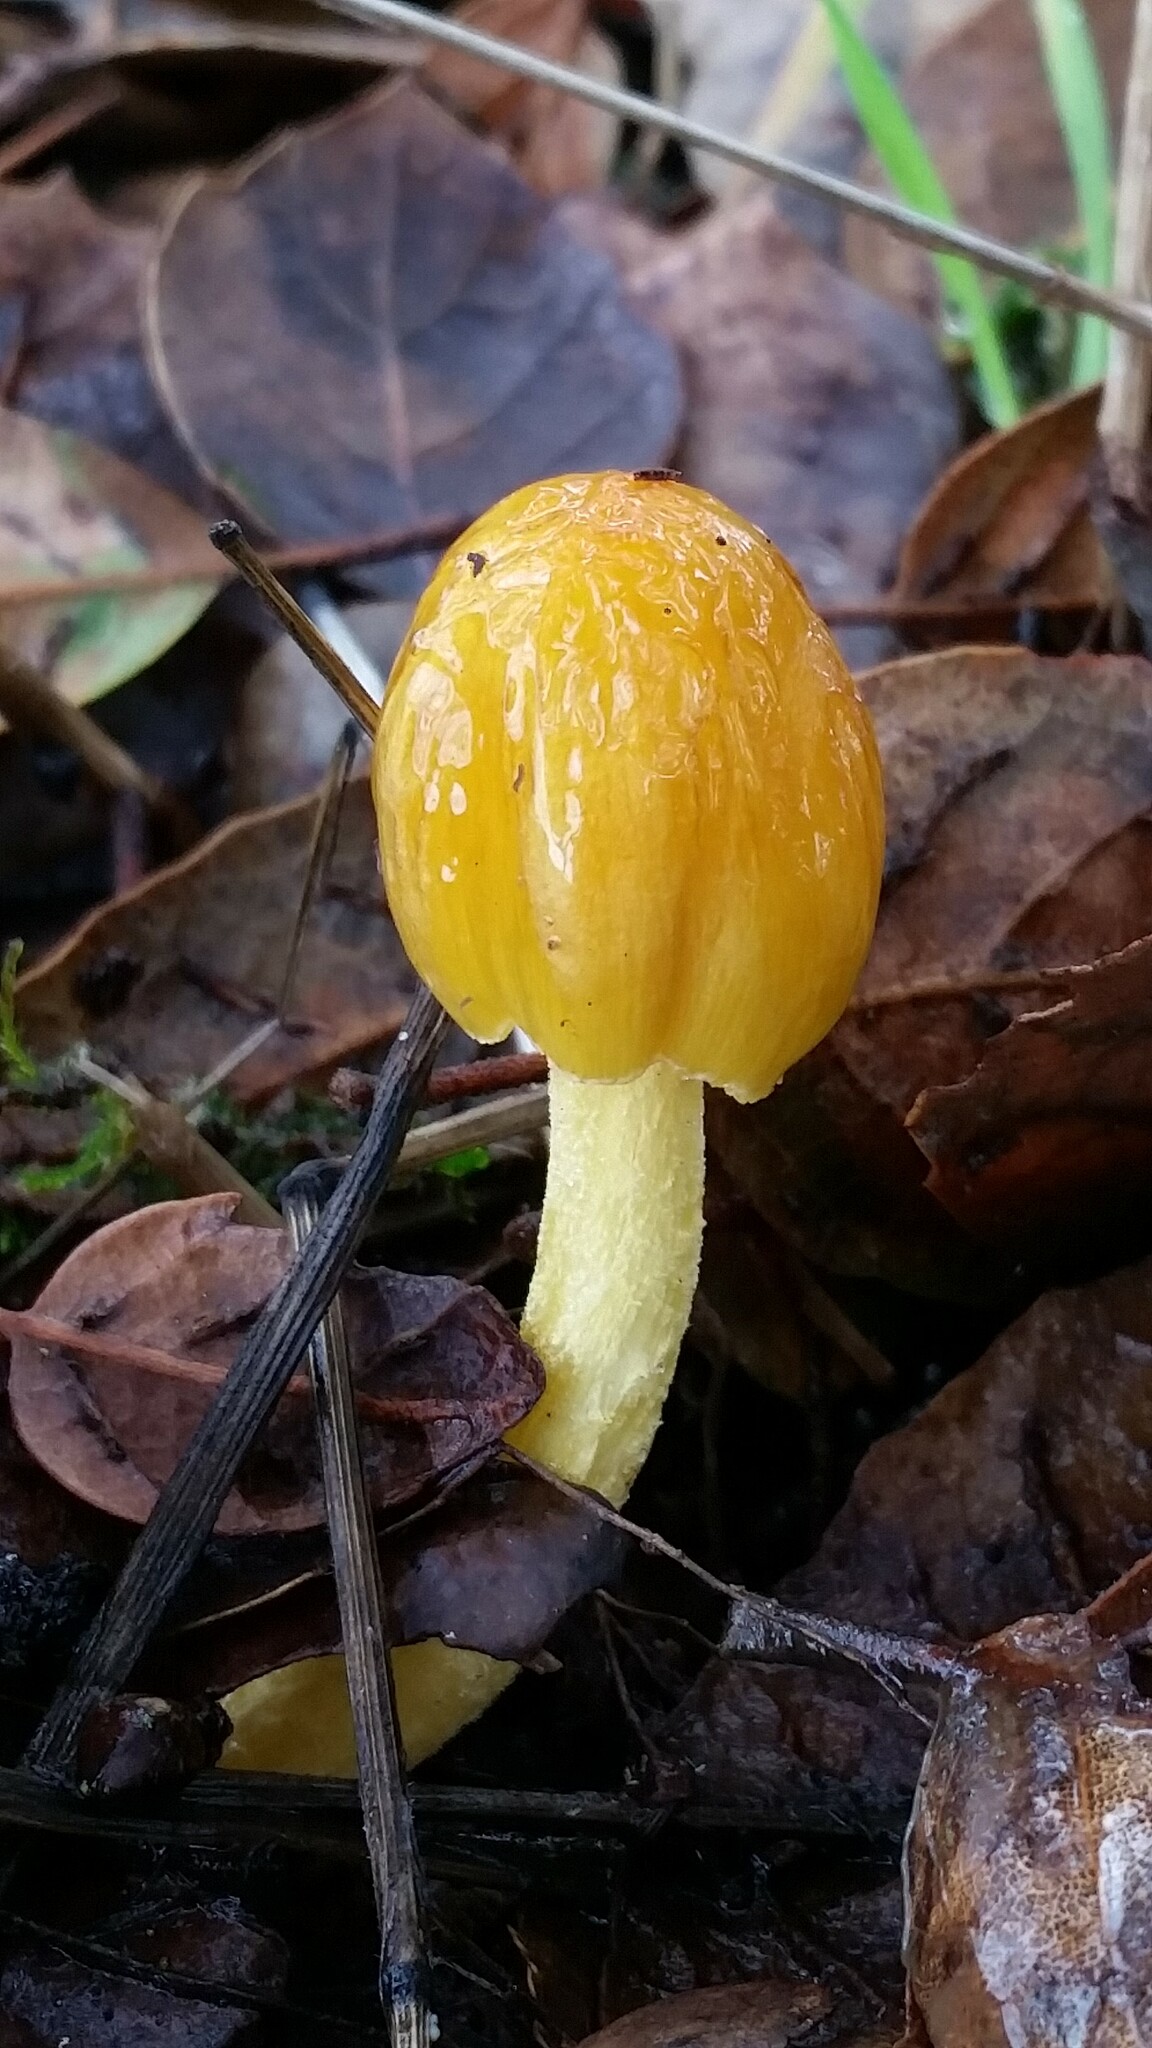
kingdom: Fungi
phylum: Basidiomycota
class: Agaricomycetes
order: Agaricales
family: Bolbitiaceae
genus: Bolbitius
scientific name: Bolbitius titubans
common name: Yellow fieldcap
